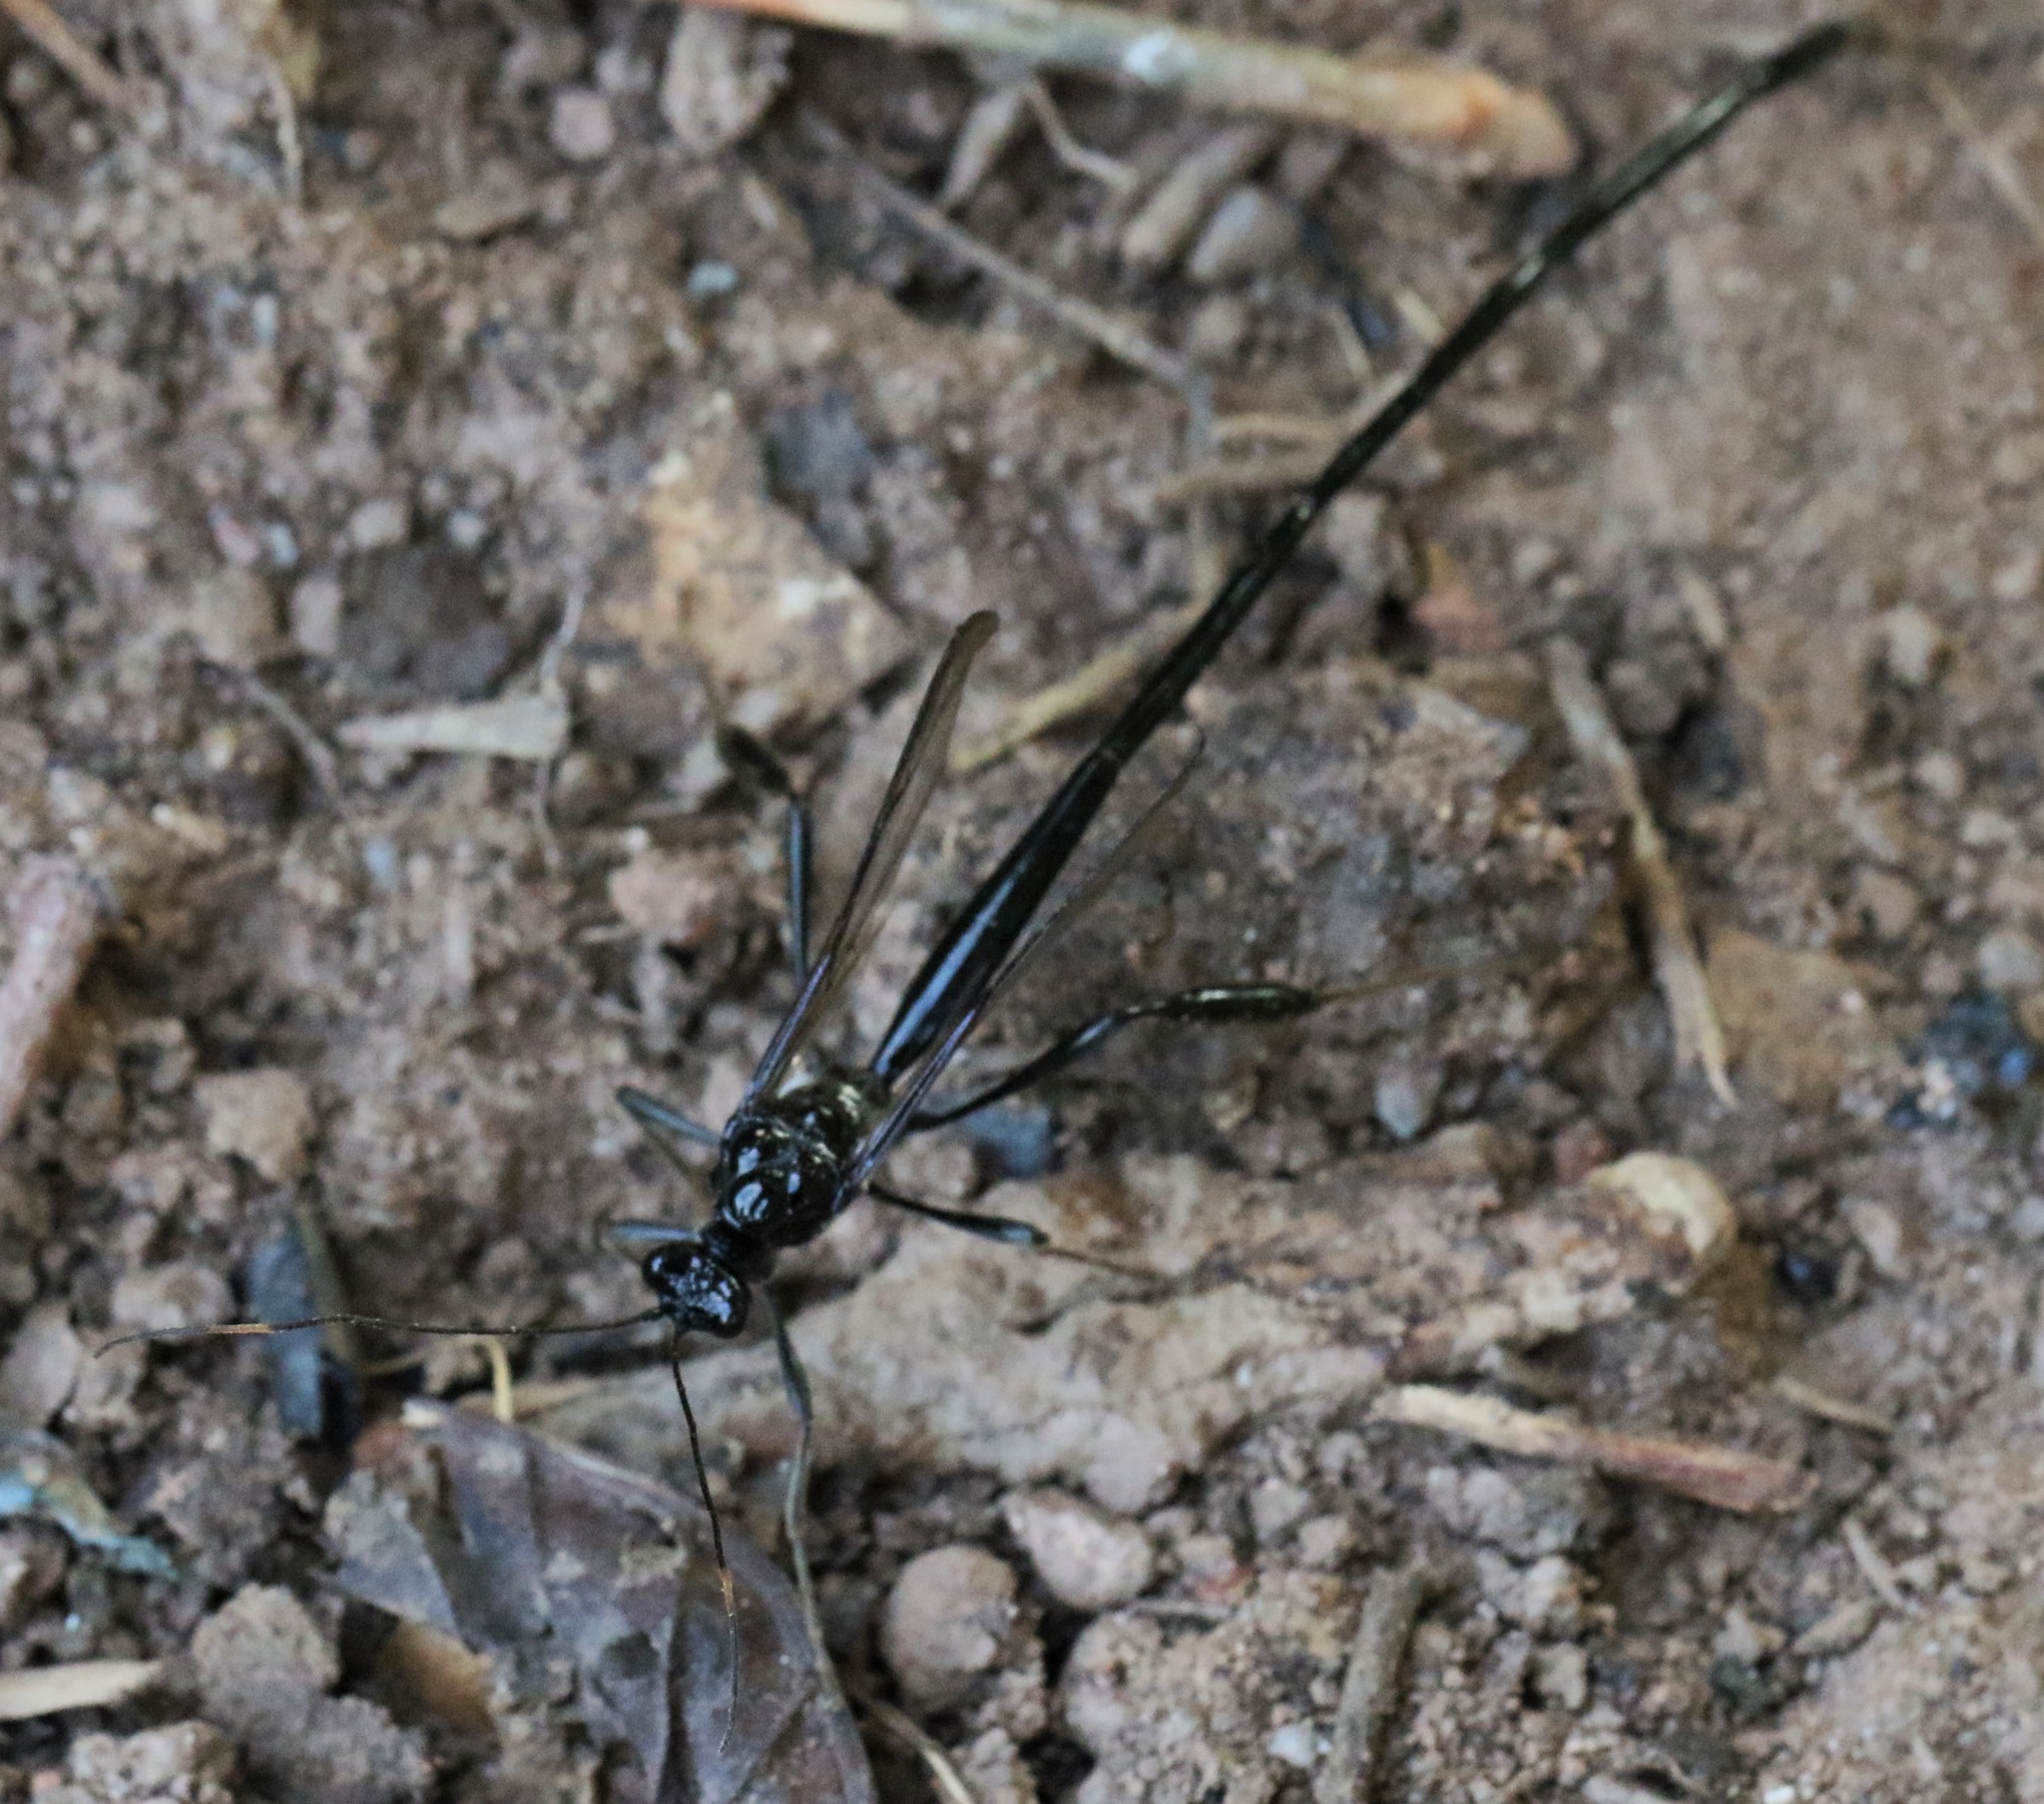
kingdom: Animalia
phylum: Arthropoda
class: Insecta
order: Hymenoptera
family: Pelecinidae
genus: Pelecinus
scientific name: Pelecinus polyturator
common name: American pelecinid wasp
